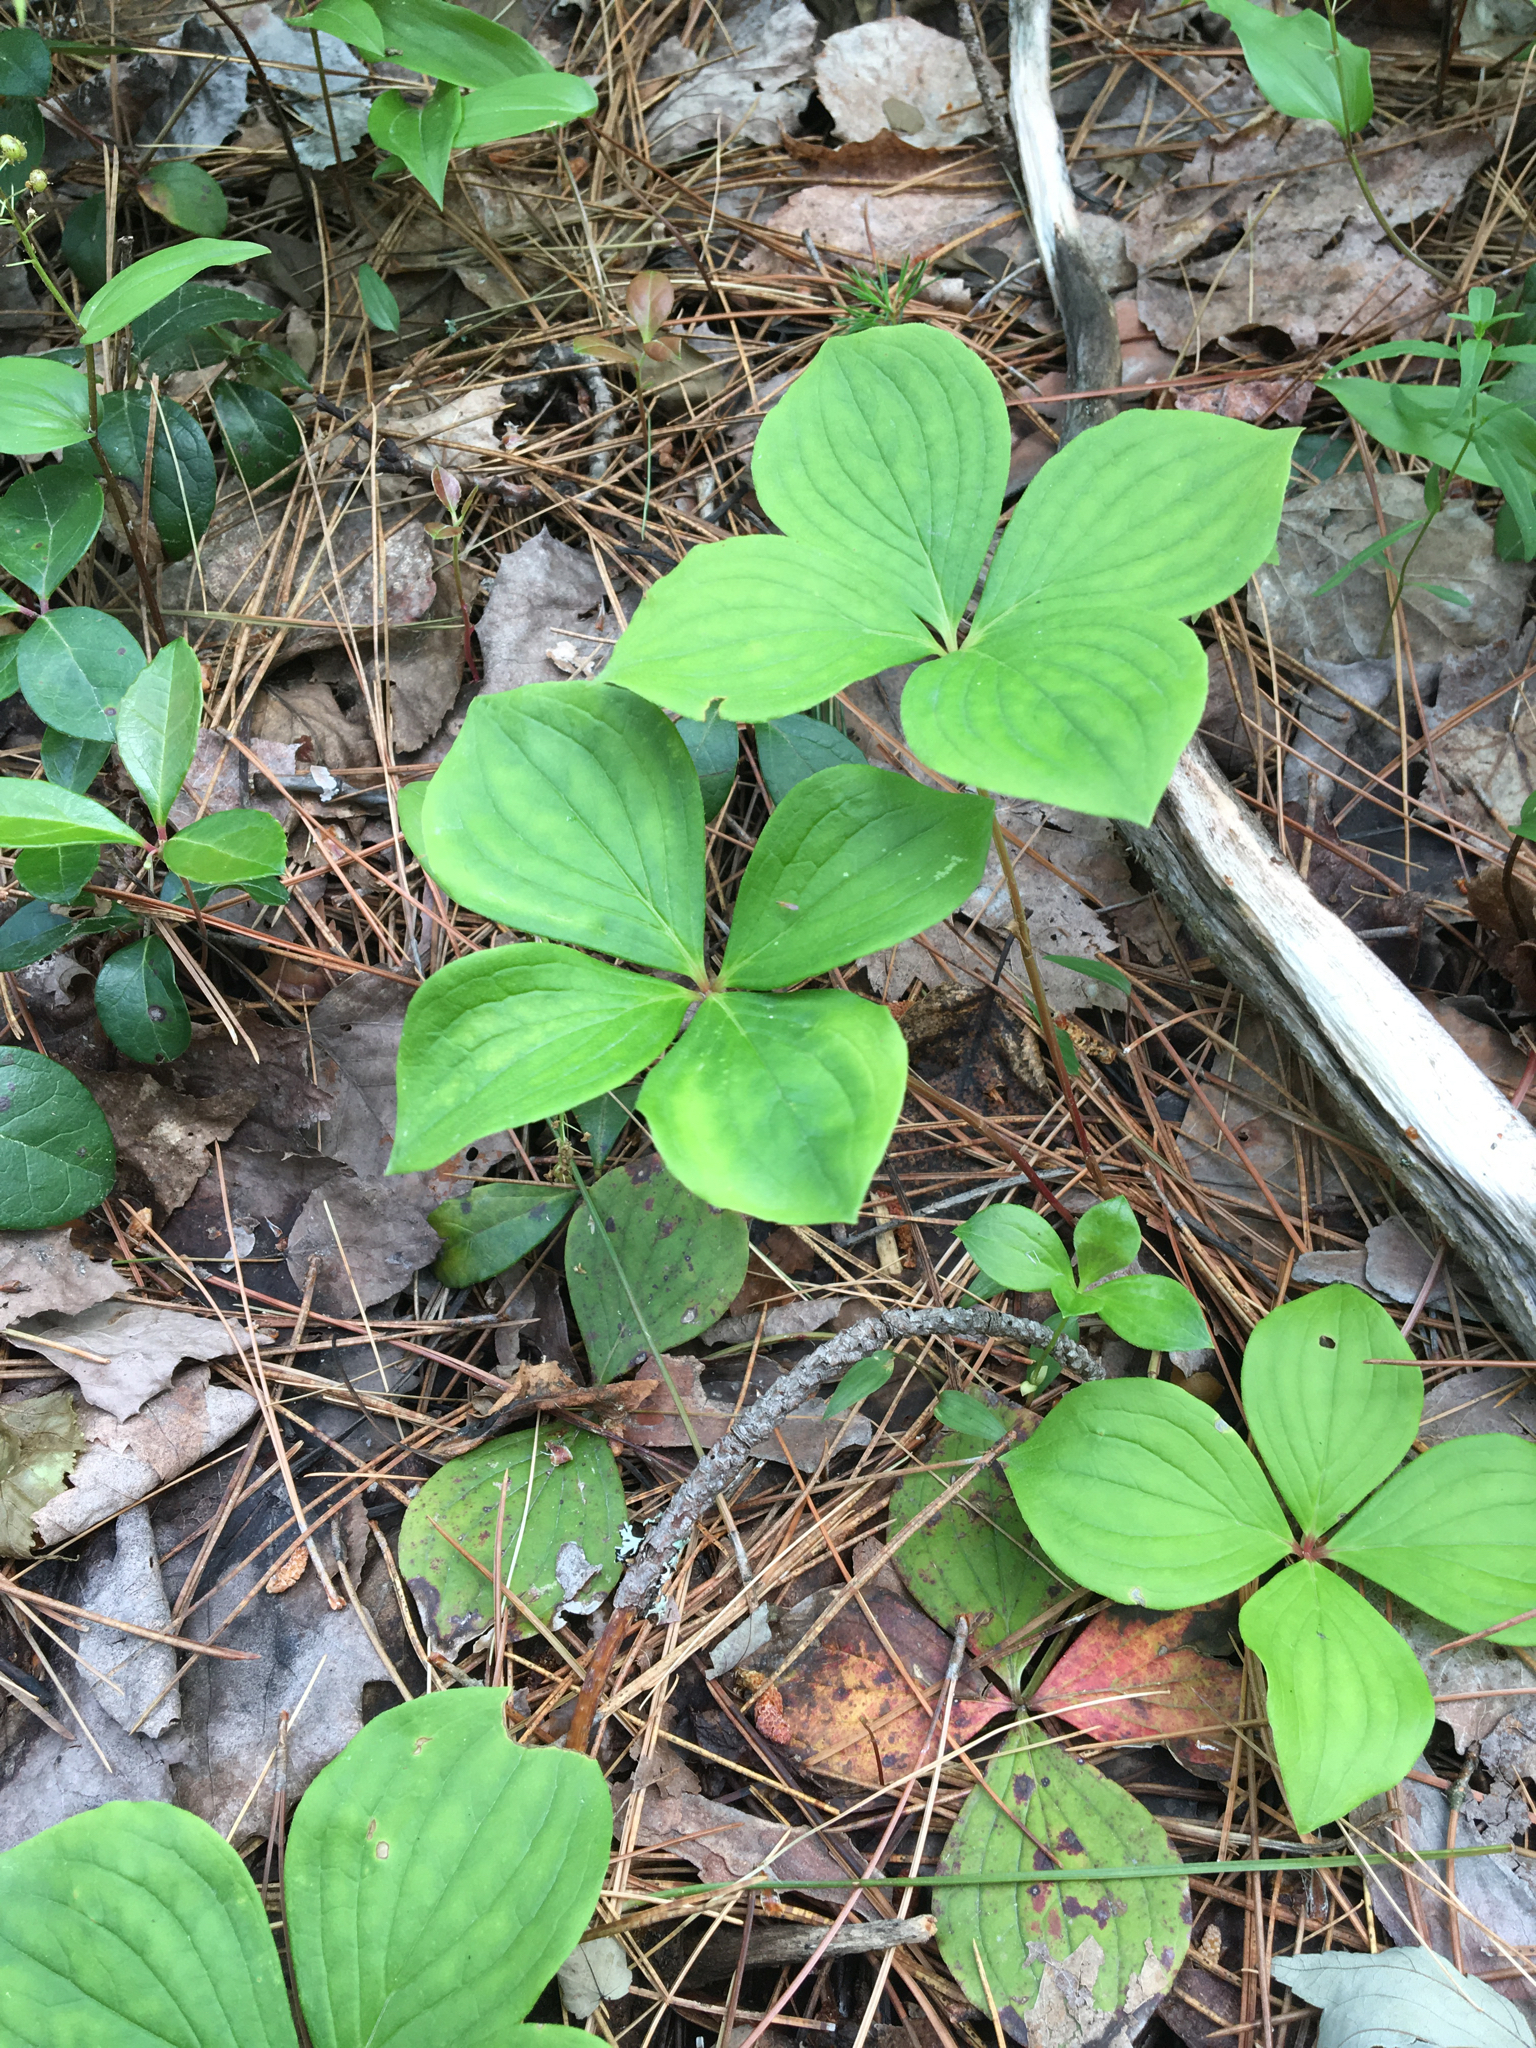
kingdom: Plantae
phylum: Tracheophyta
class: Magnoliopsida
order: Cornales
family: Cornaceae
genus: Cornus
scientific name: Cornus canadensis
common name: Creeping dogwood
